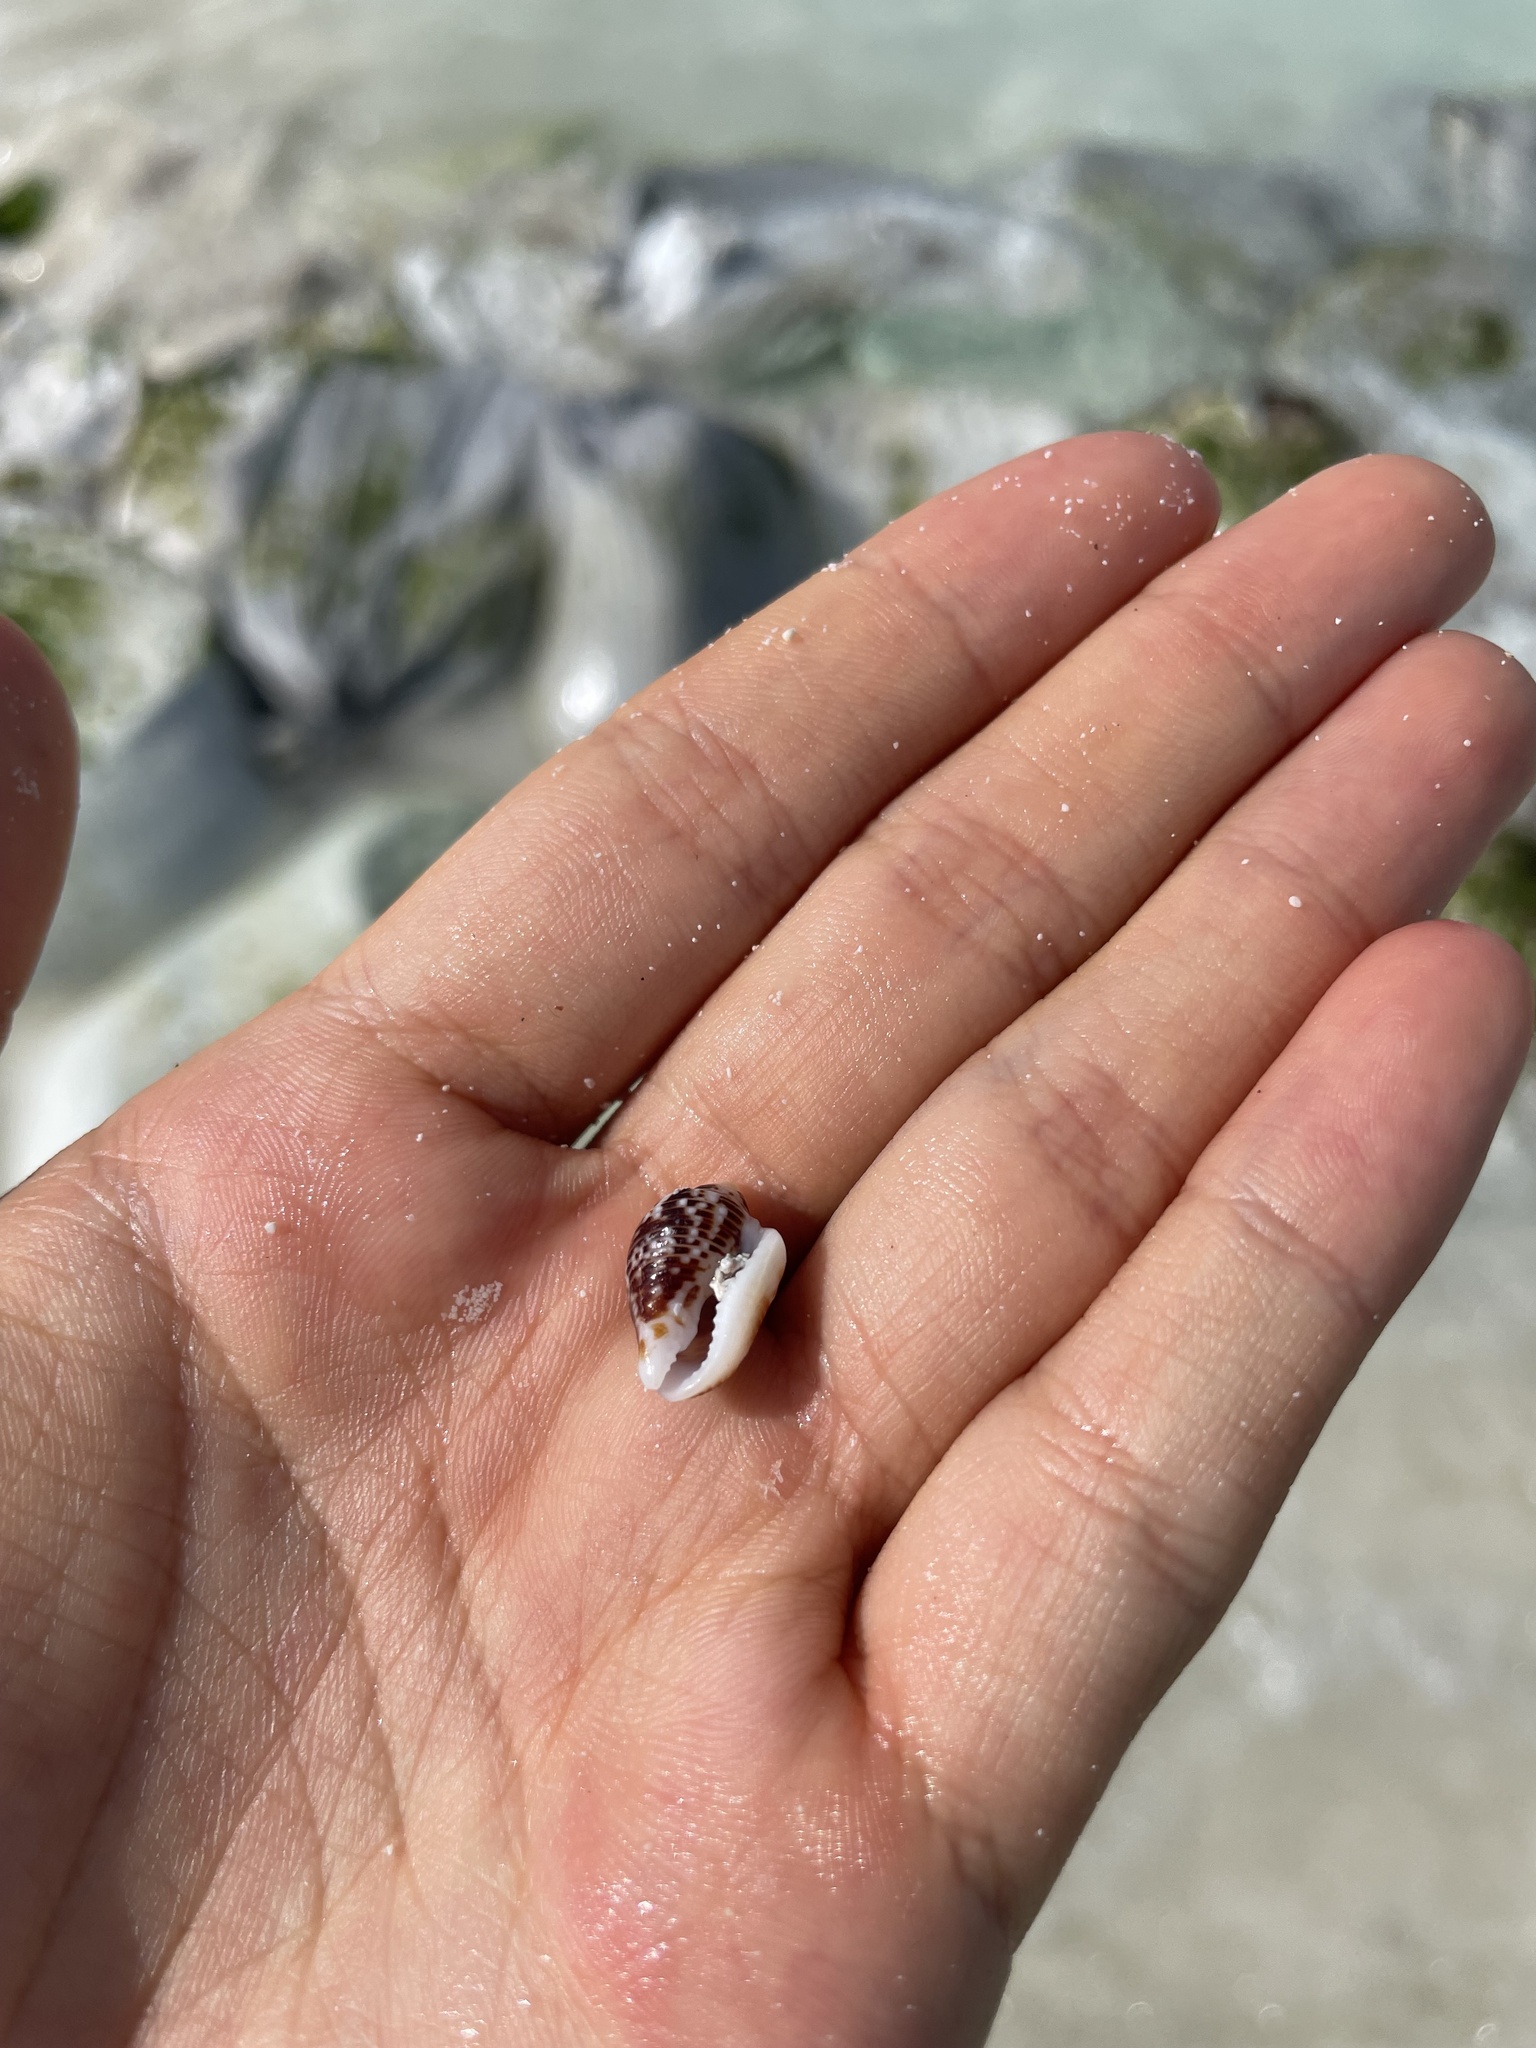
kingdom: Animalia
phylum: Mollusca
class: Gastropoda
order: Neogastropoda
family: Columbellidae
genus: Columbella
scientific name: Columbella mercatoria
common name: West indian dovesnail
